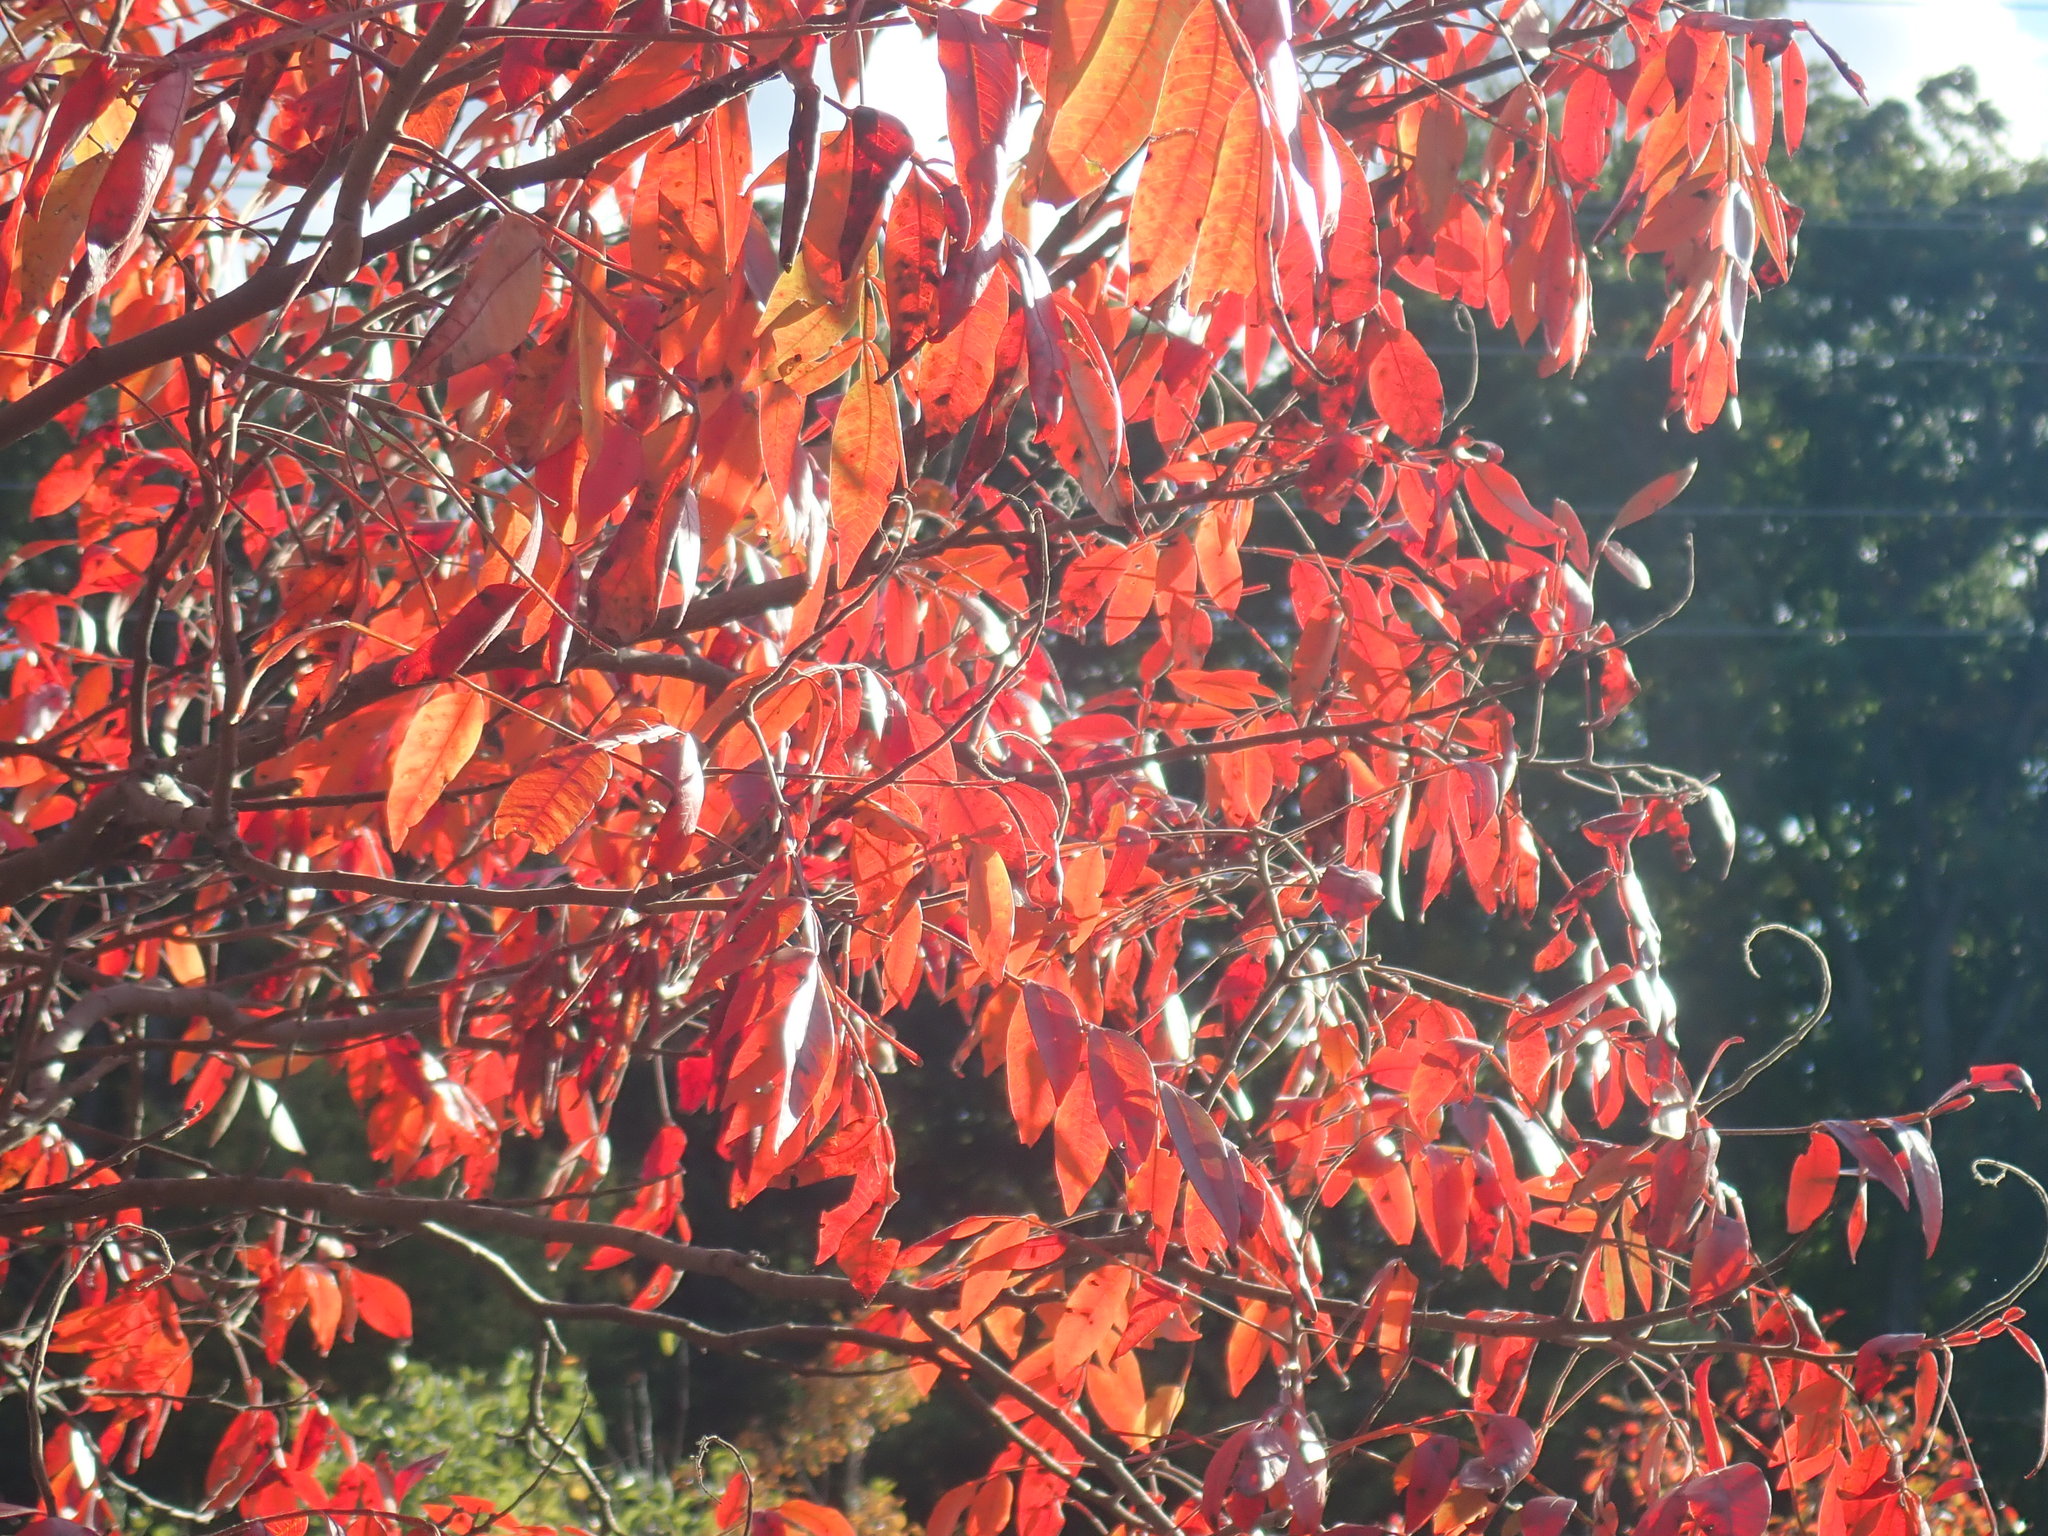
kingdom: Plantae
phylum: Tracheophyta
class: Magnoliopsida
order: Sapindales
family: Anacardiaceae
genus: Rhus
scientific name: Rhus copallina
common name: Shining sumac
